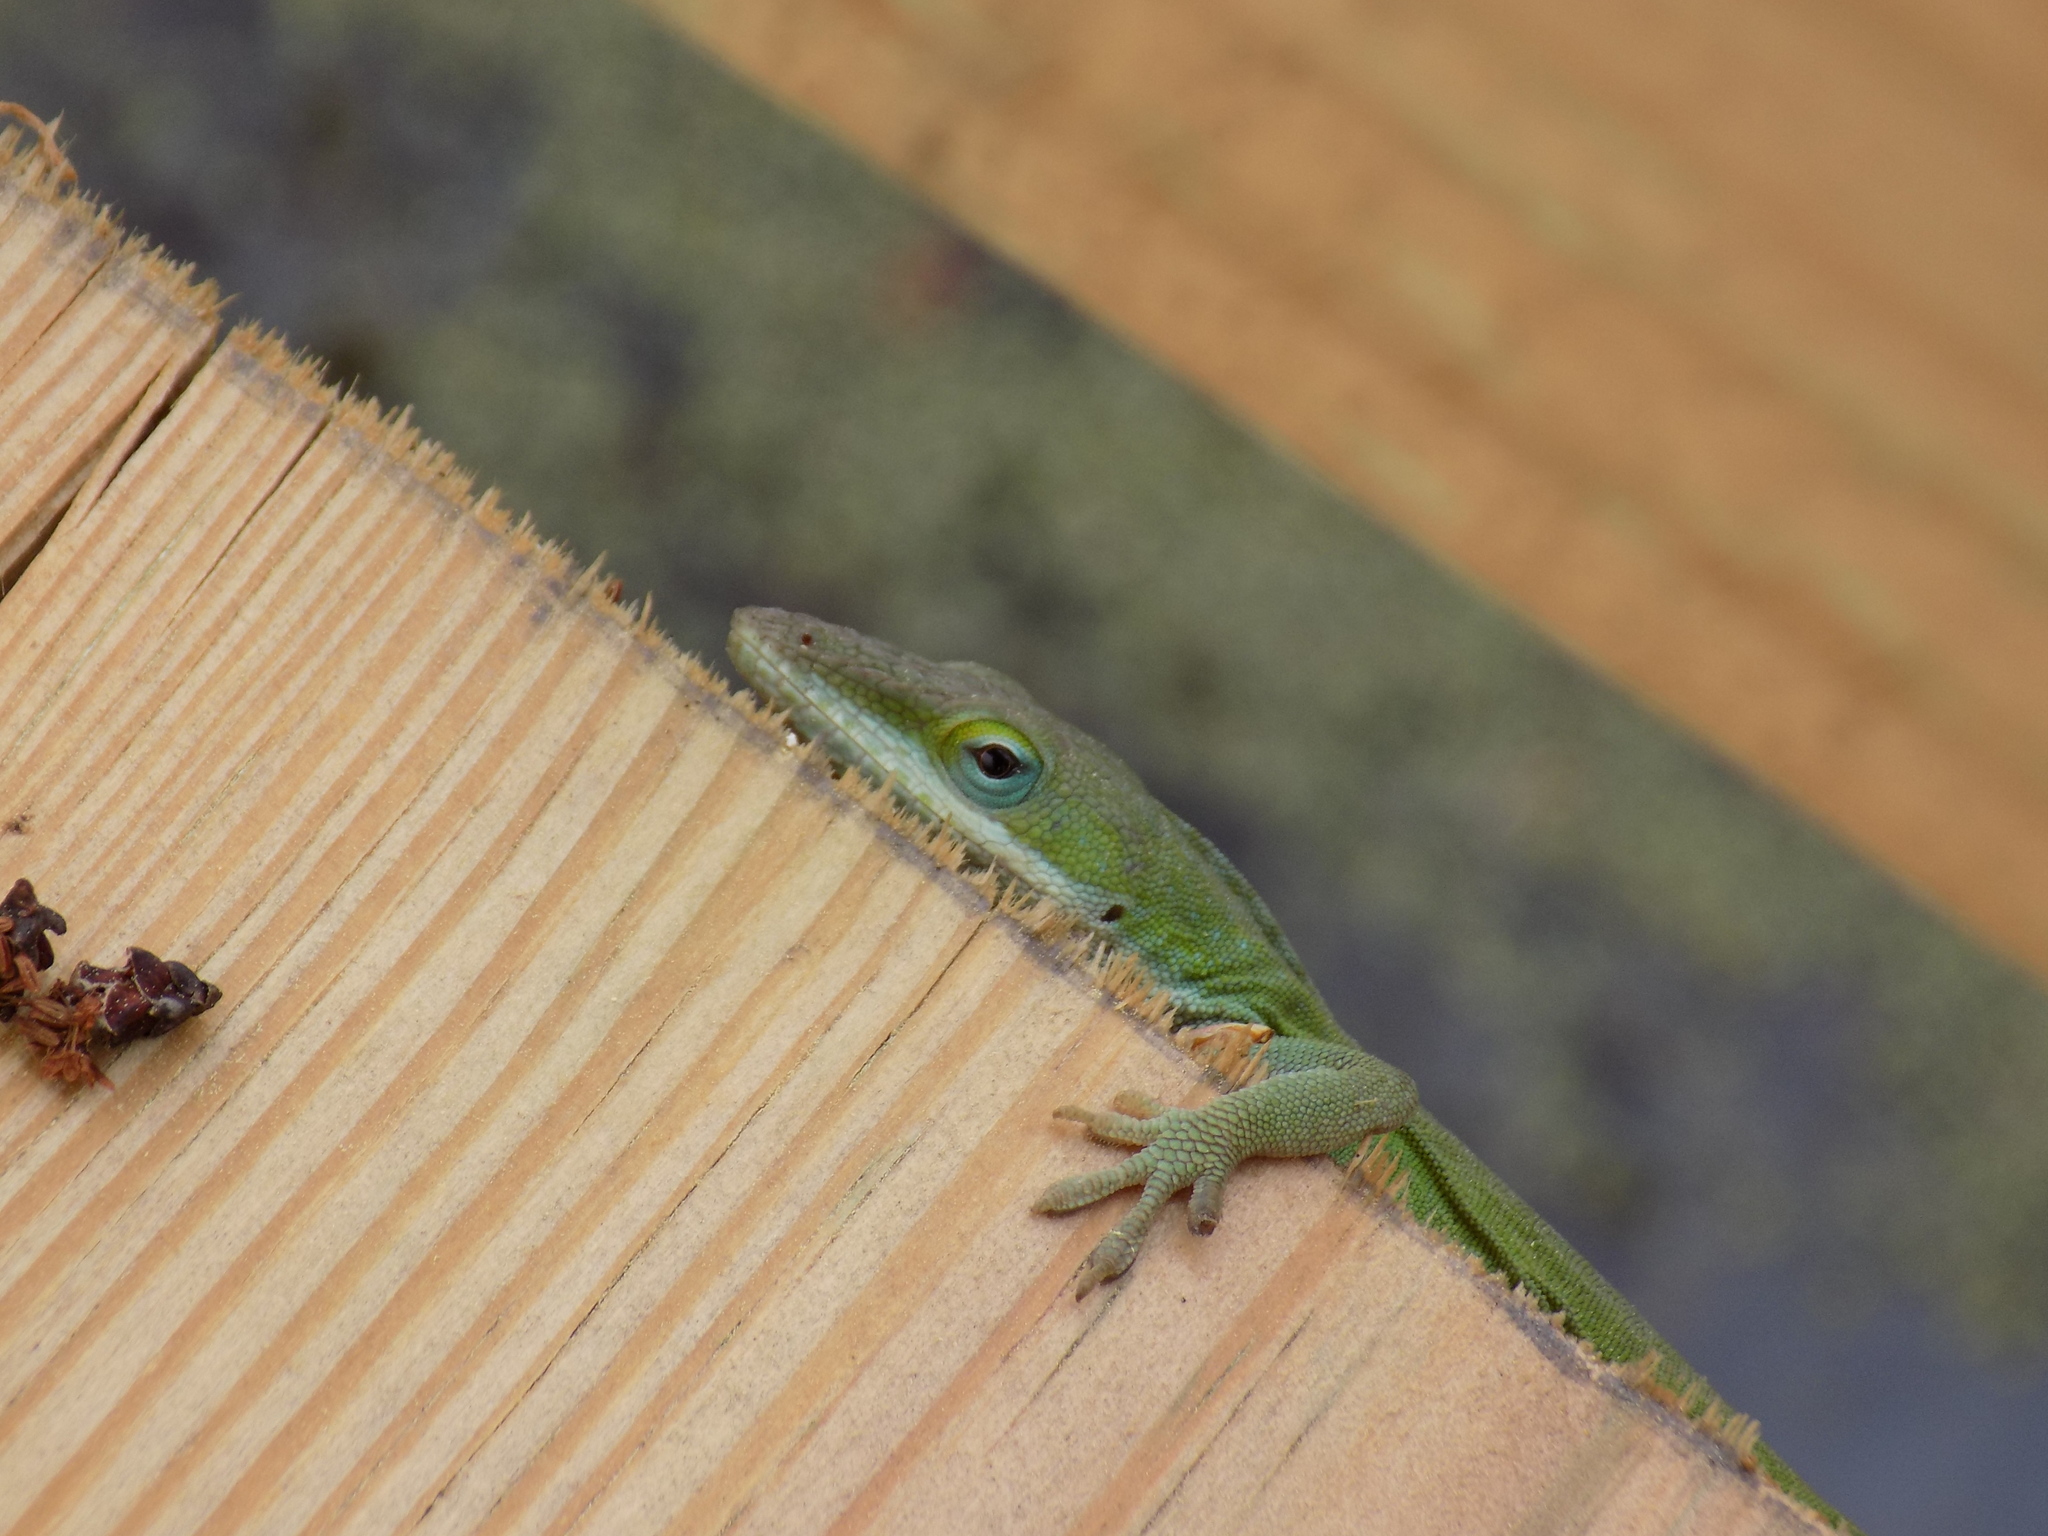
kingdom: Animalia
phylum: Chordata
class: Squamata
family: Dactyloidae
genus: Anolis
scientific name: Anolis carolinensis
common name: Green anole
